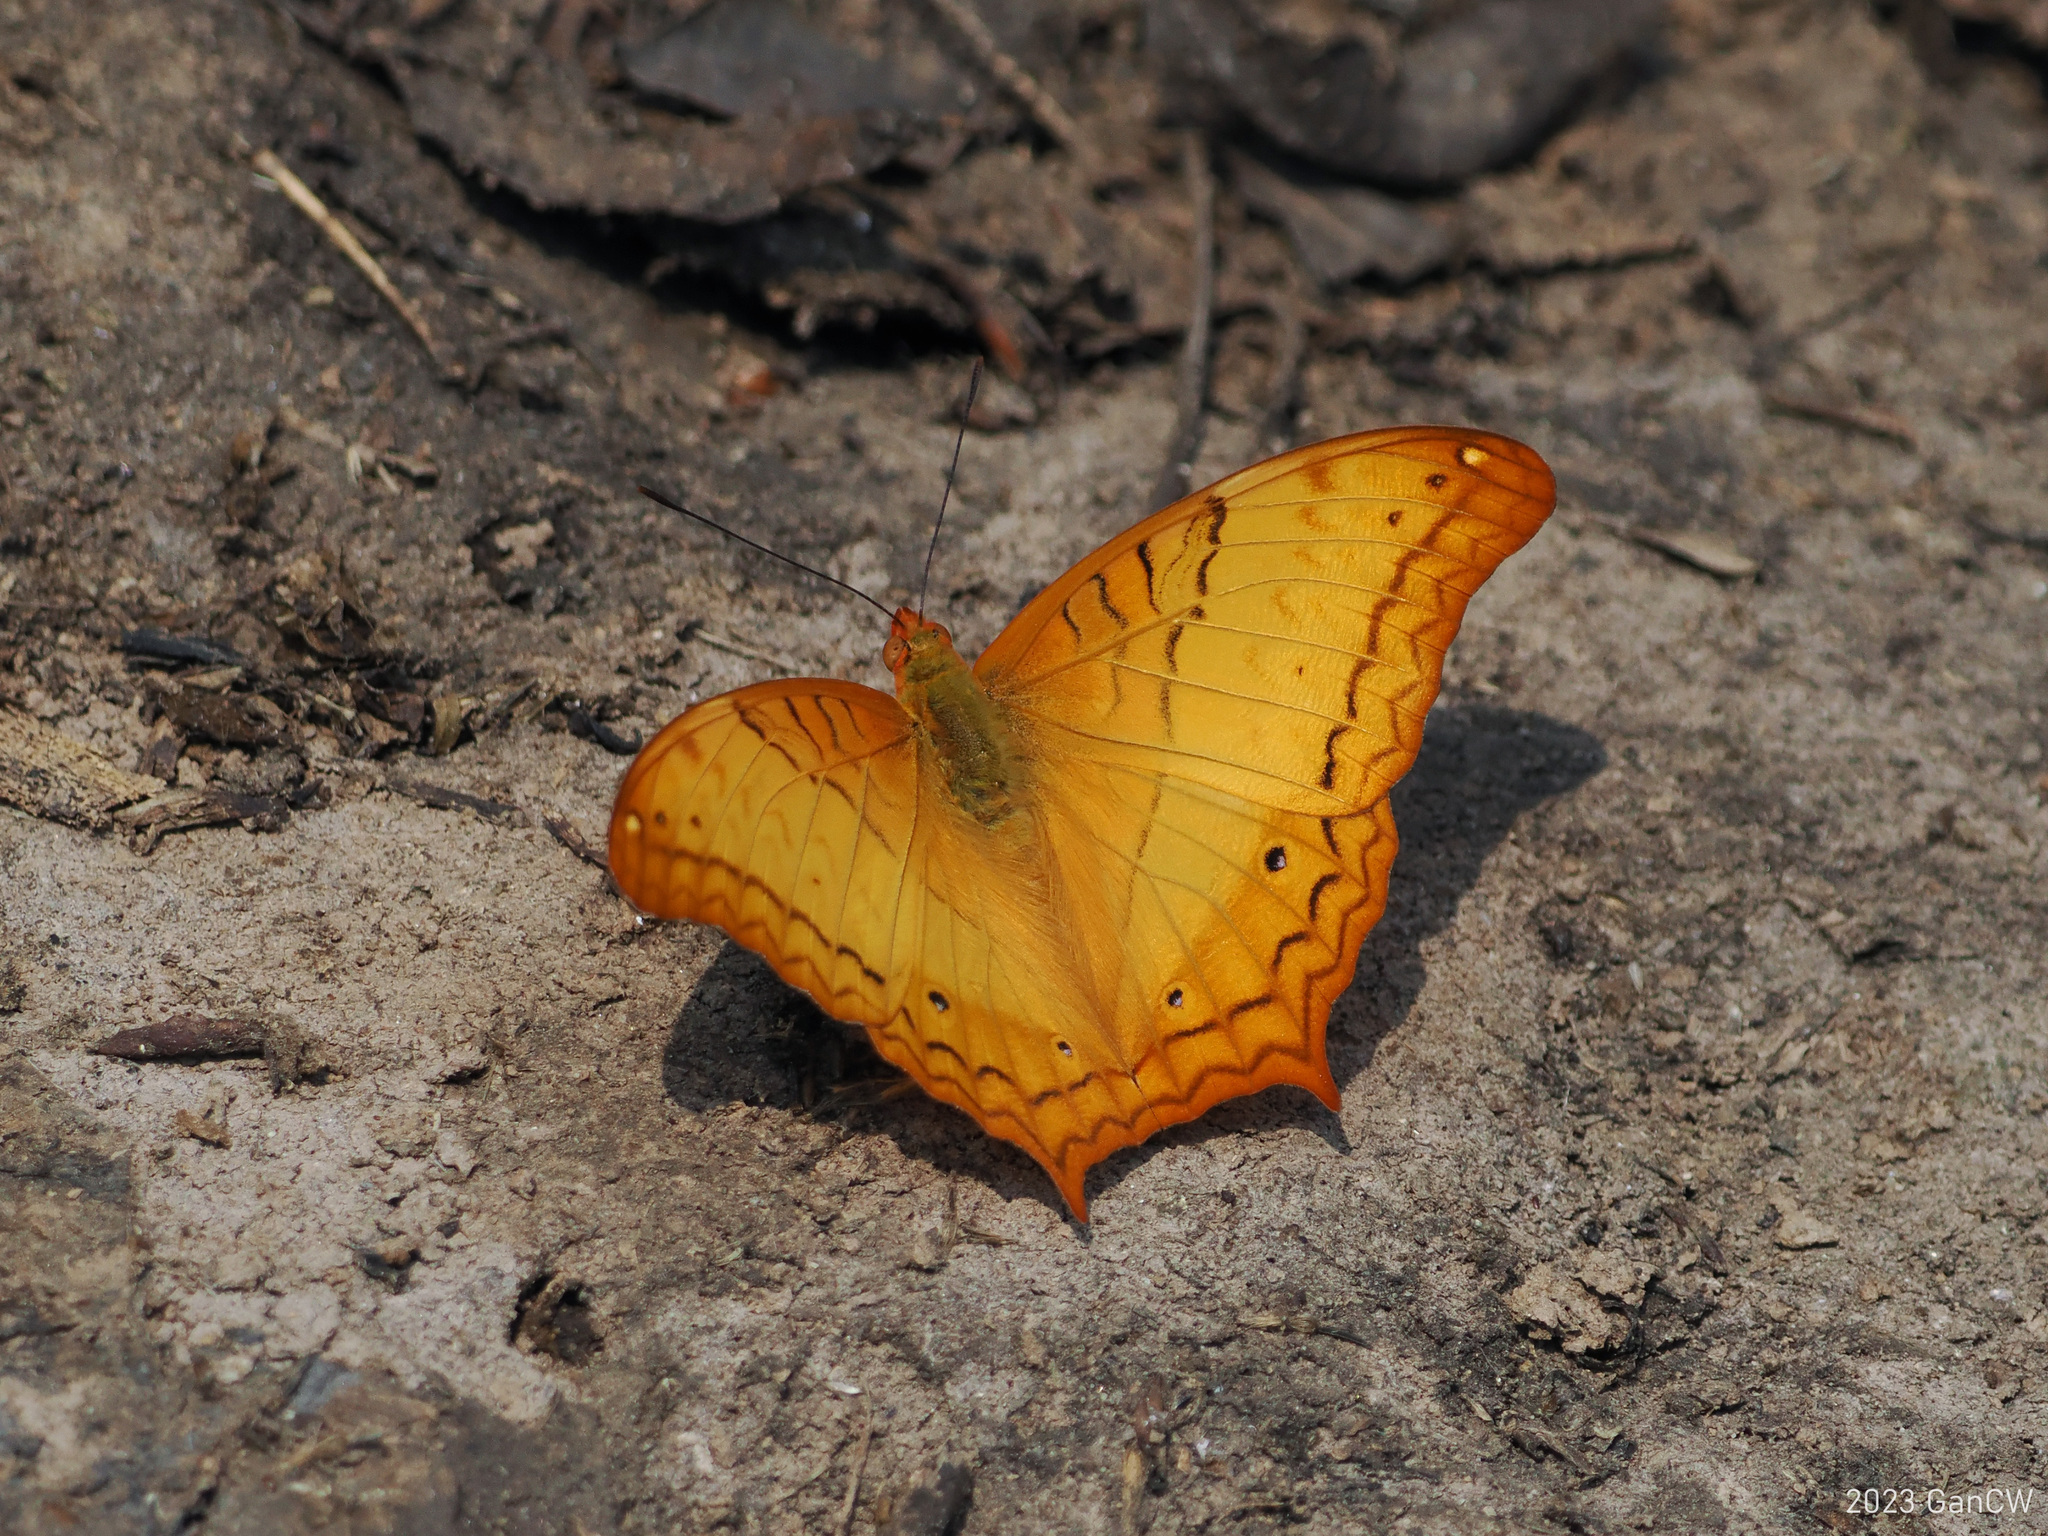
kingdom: Animalia
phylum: Arthropoda
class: Insecta
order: Lepidoptera
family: Nymphalidae
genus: Vindula
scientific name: Vindula erota
